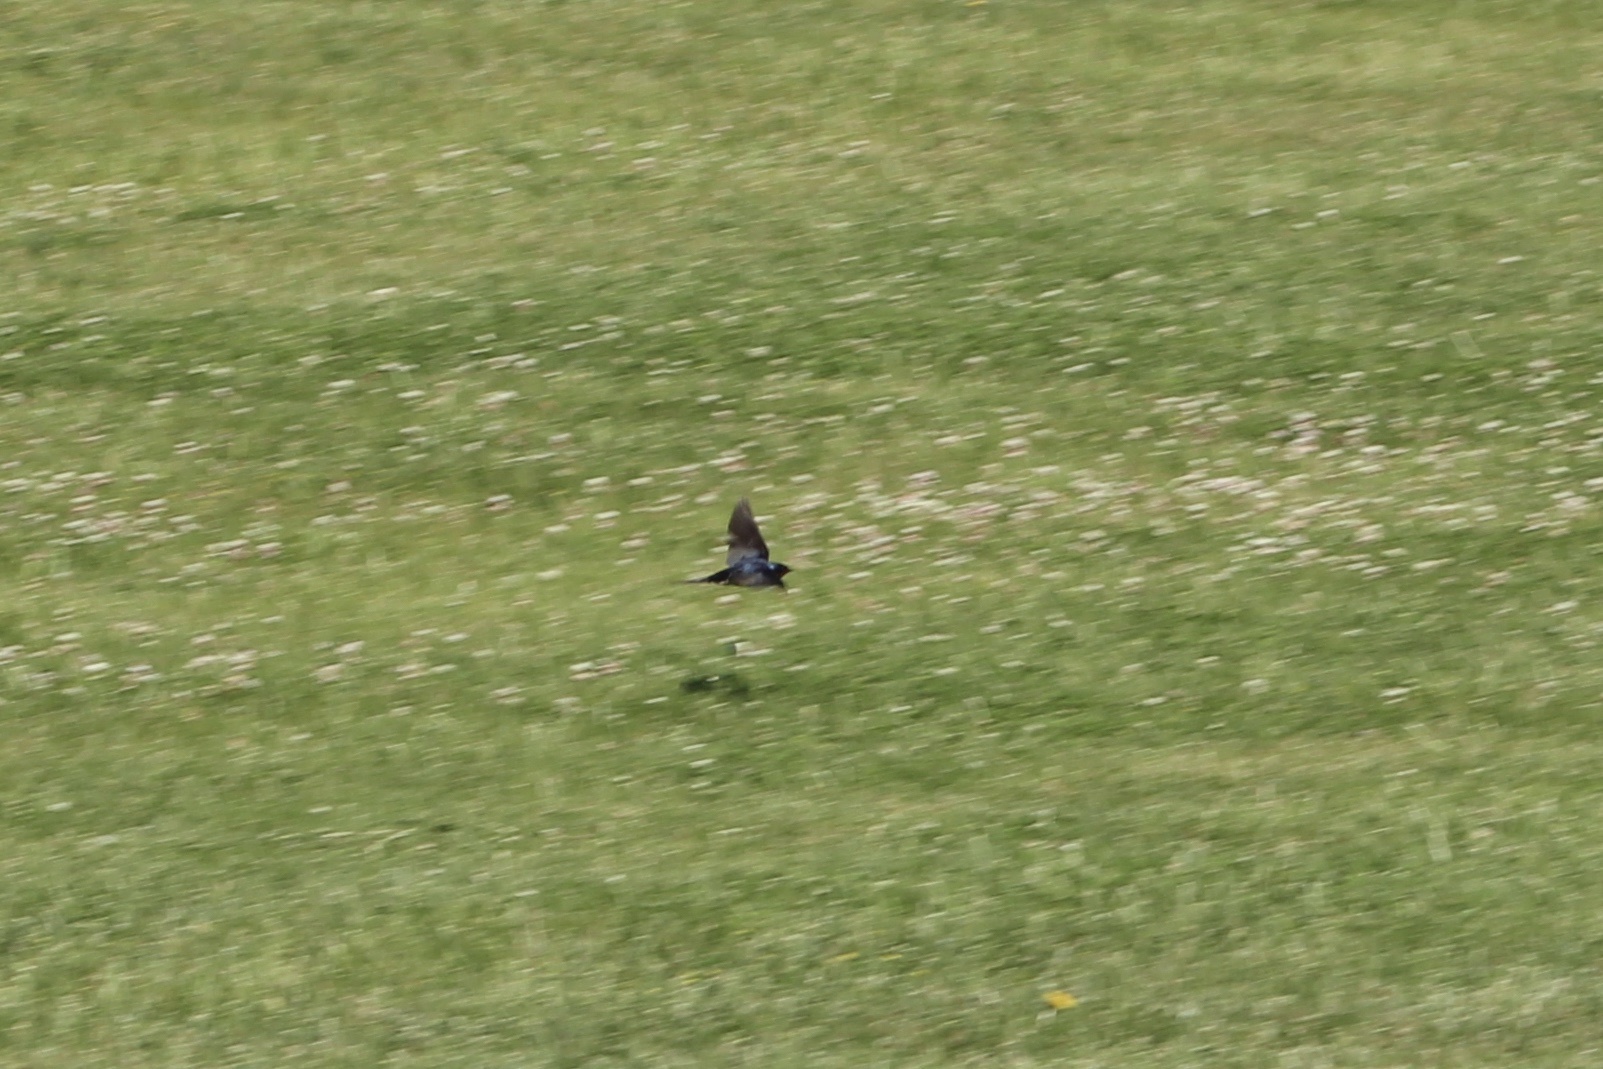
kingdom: Animalia
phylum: Chordata
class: Aves
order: Passeriformes
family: Hirundinidae
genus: Tachycineta
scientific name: Tachycineta bicolor
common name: Tree swallow
